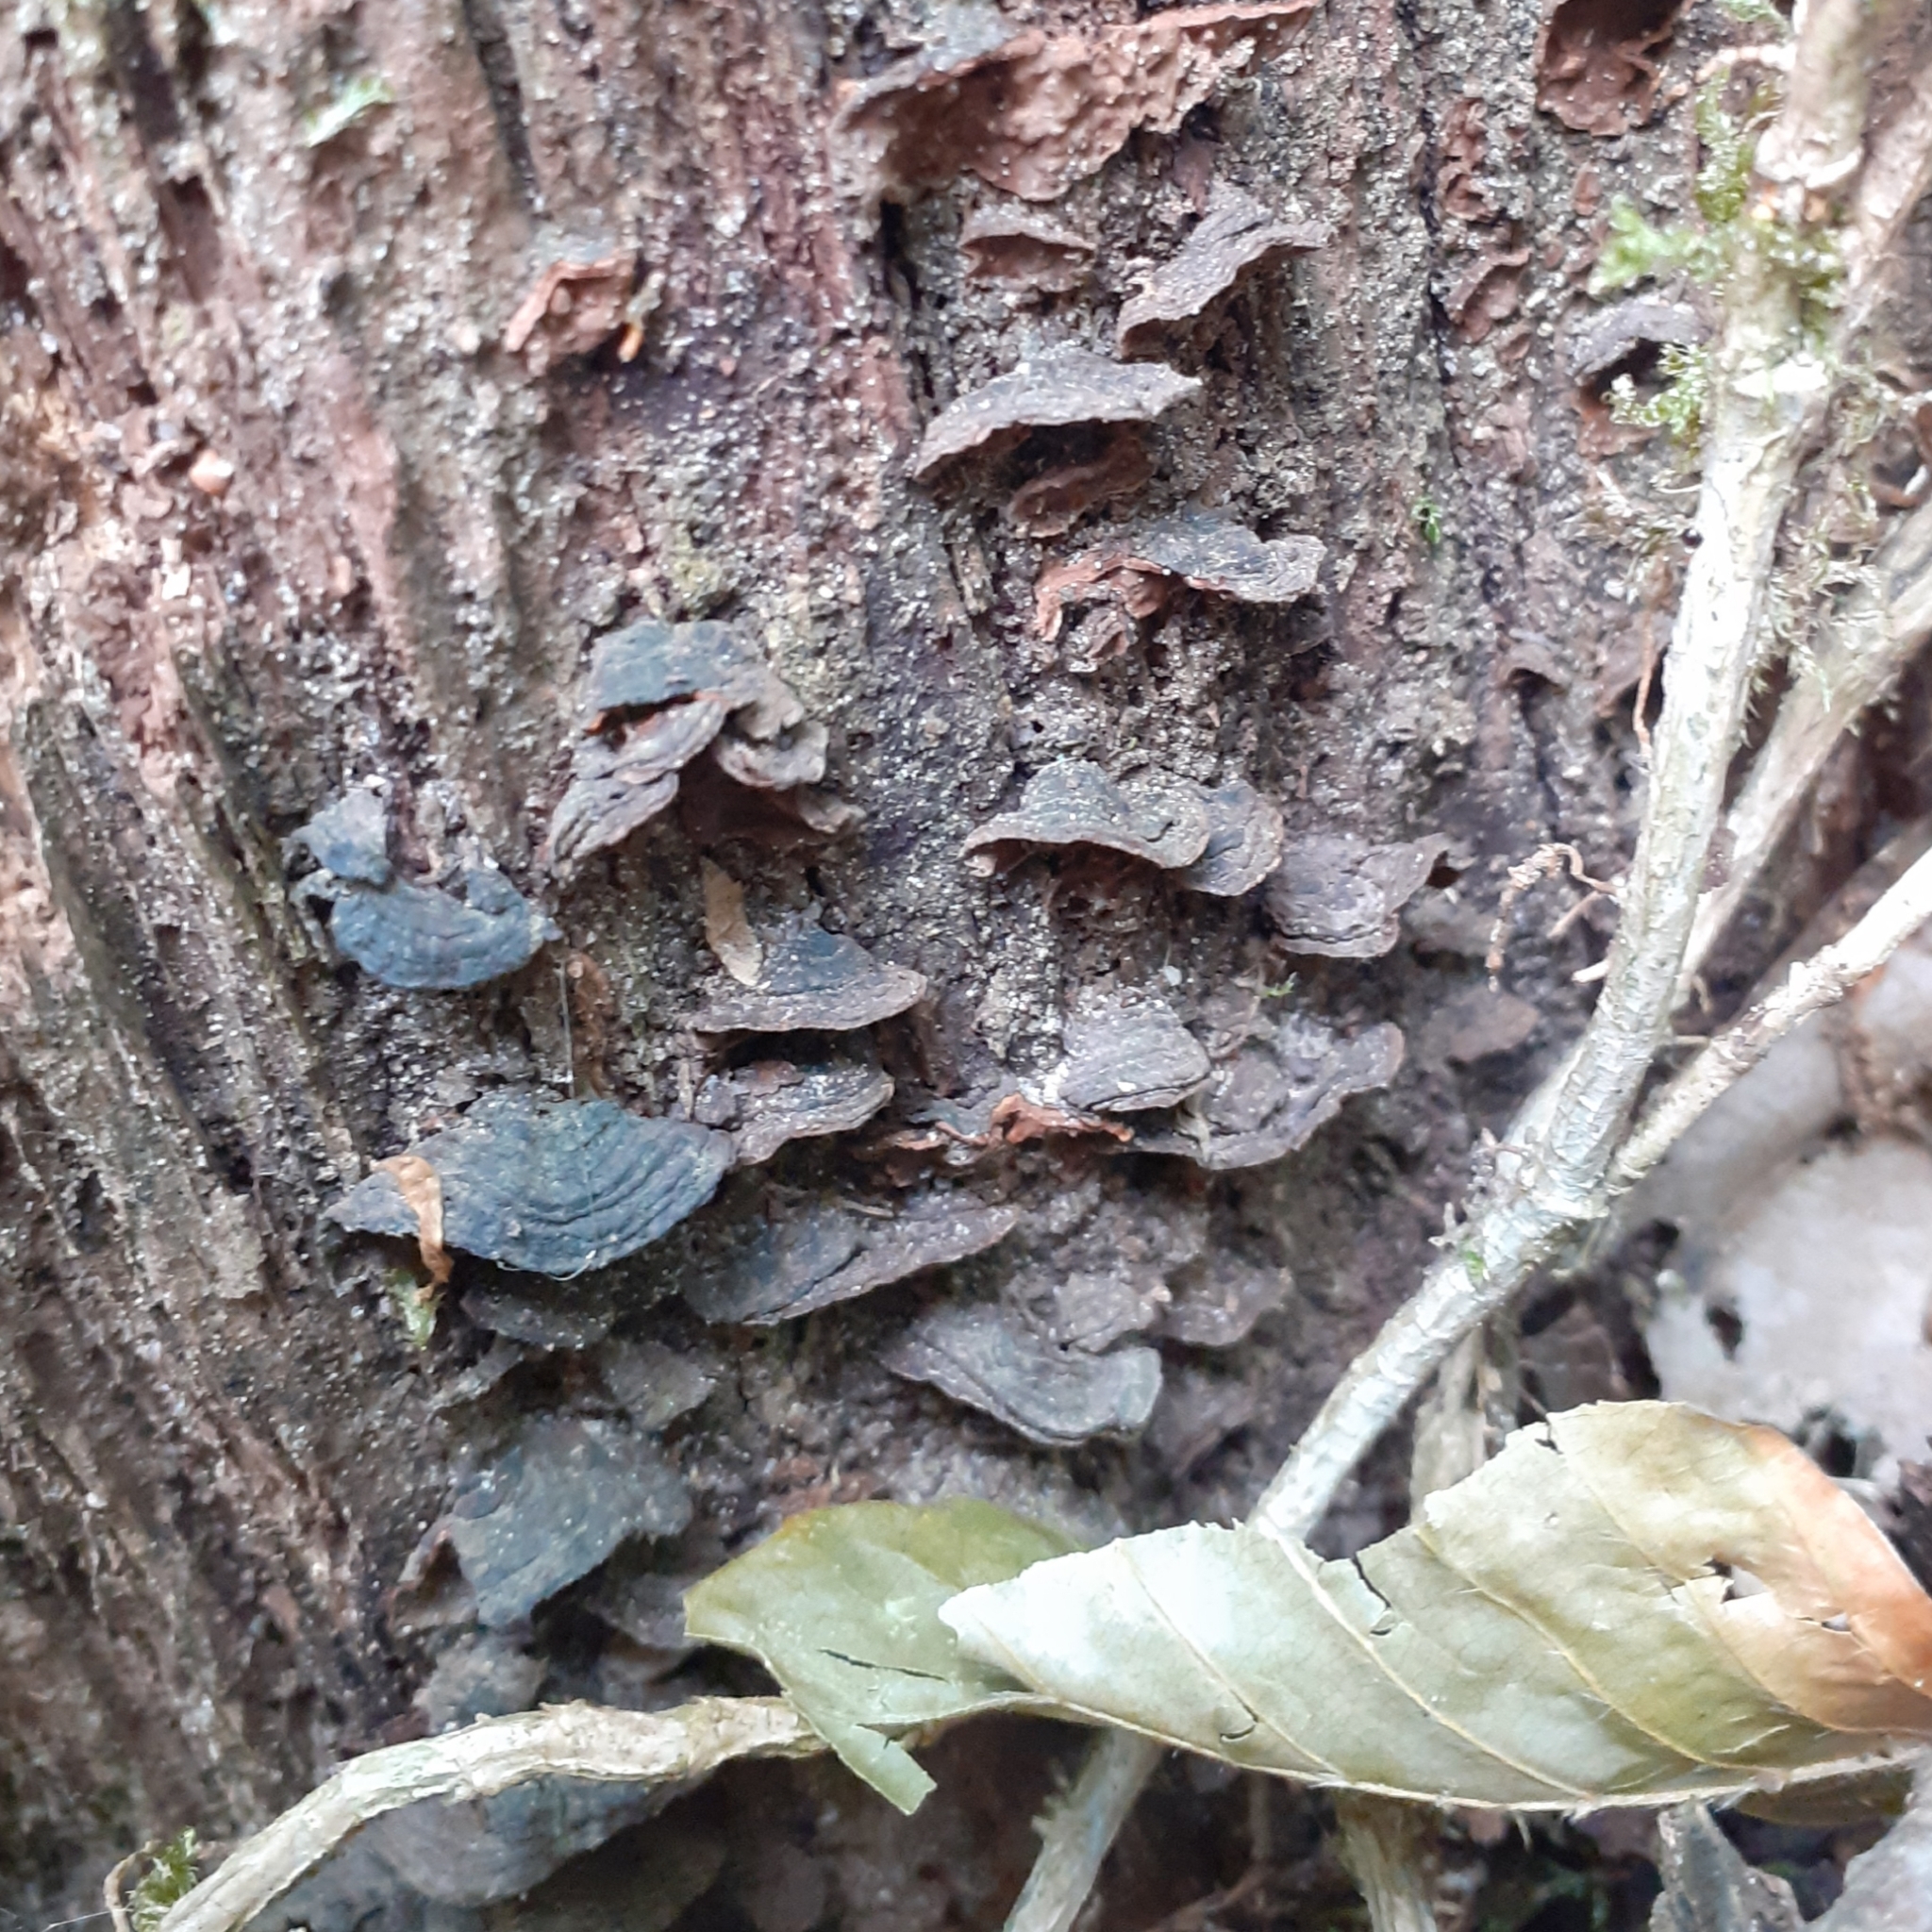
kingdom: Fungi
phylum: Basidiomycota
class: Agaricomycetes
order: Hymenochaetales
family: Hymenochaetaceae
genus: Hymenochaete
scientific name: Hymenochaete rubiginosa
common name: Oak curtain crust
